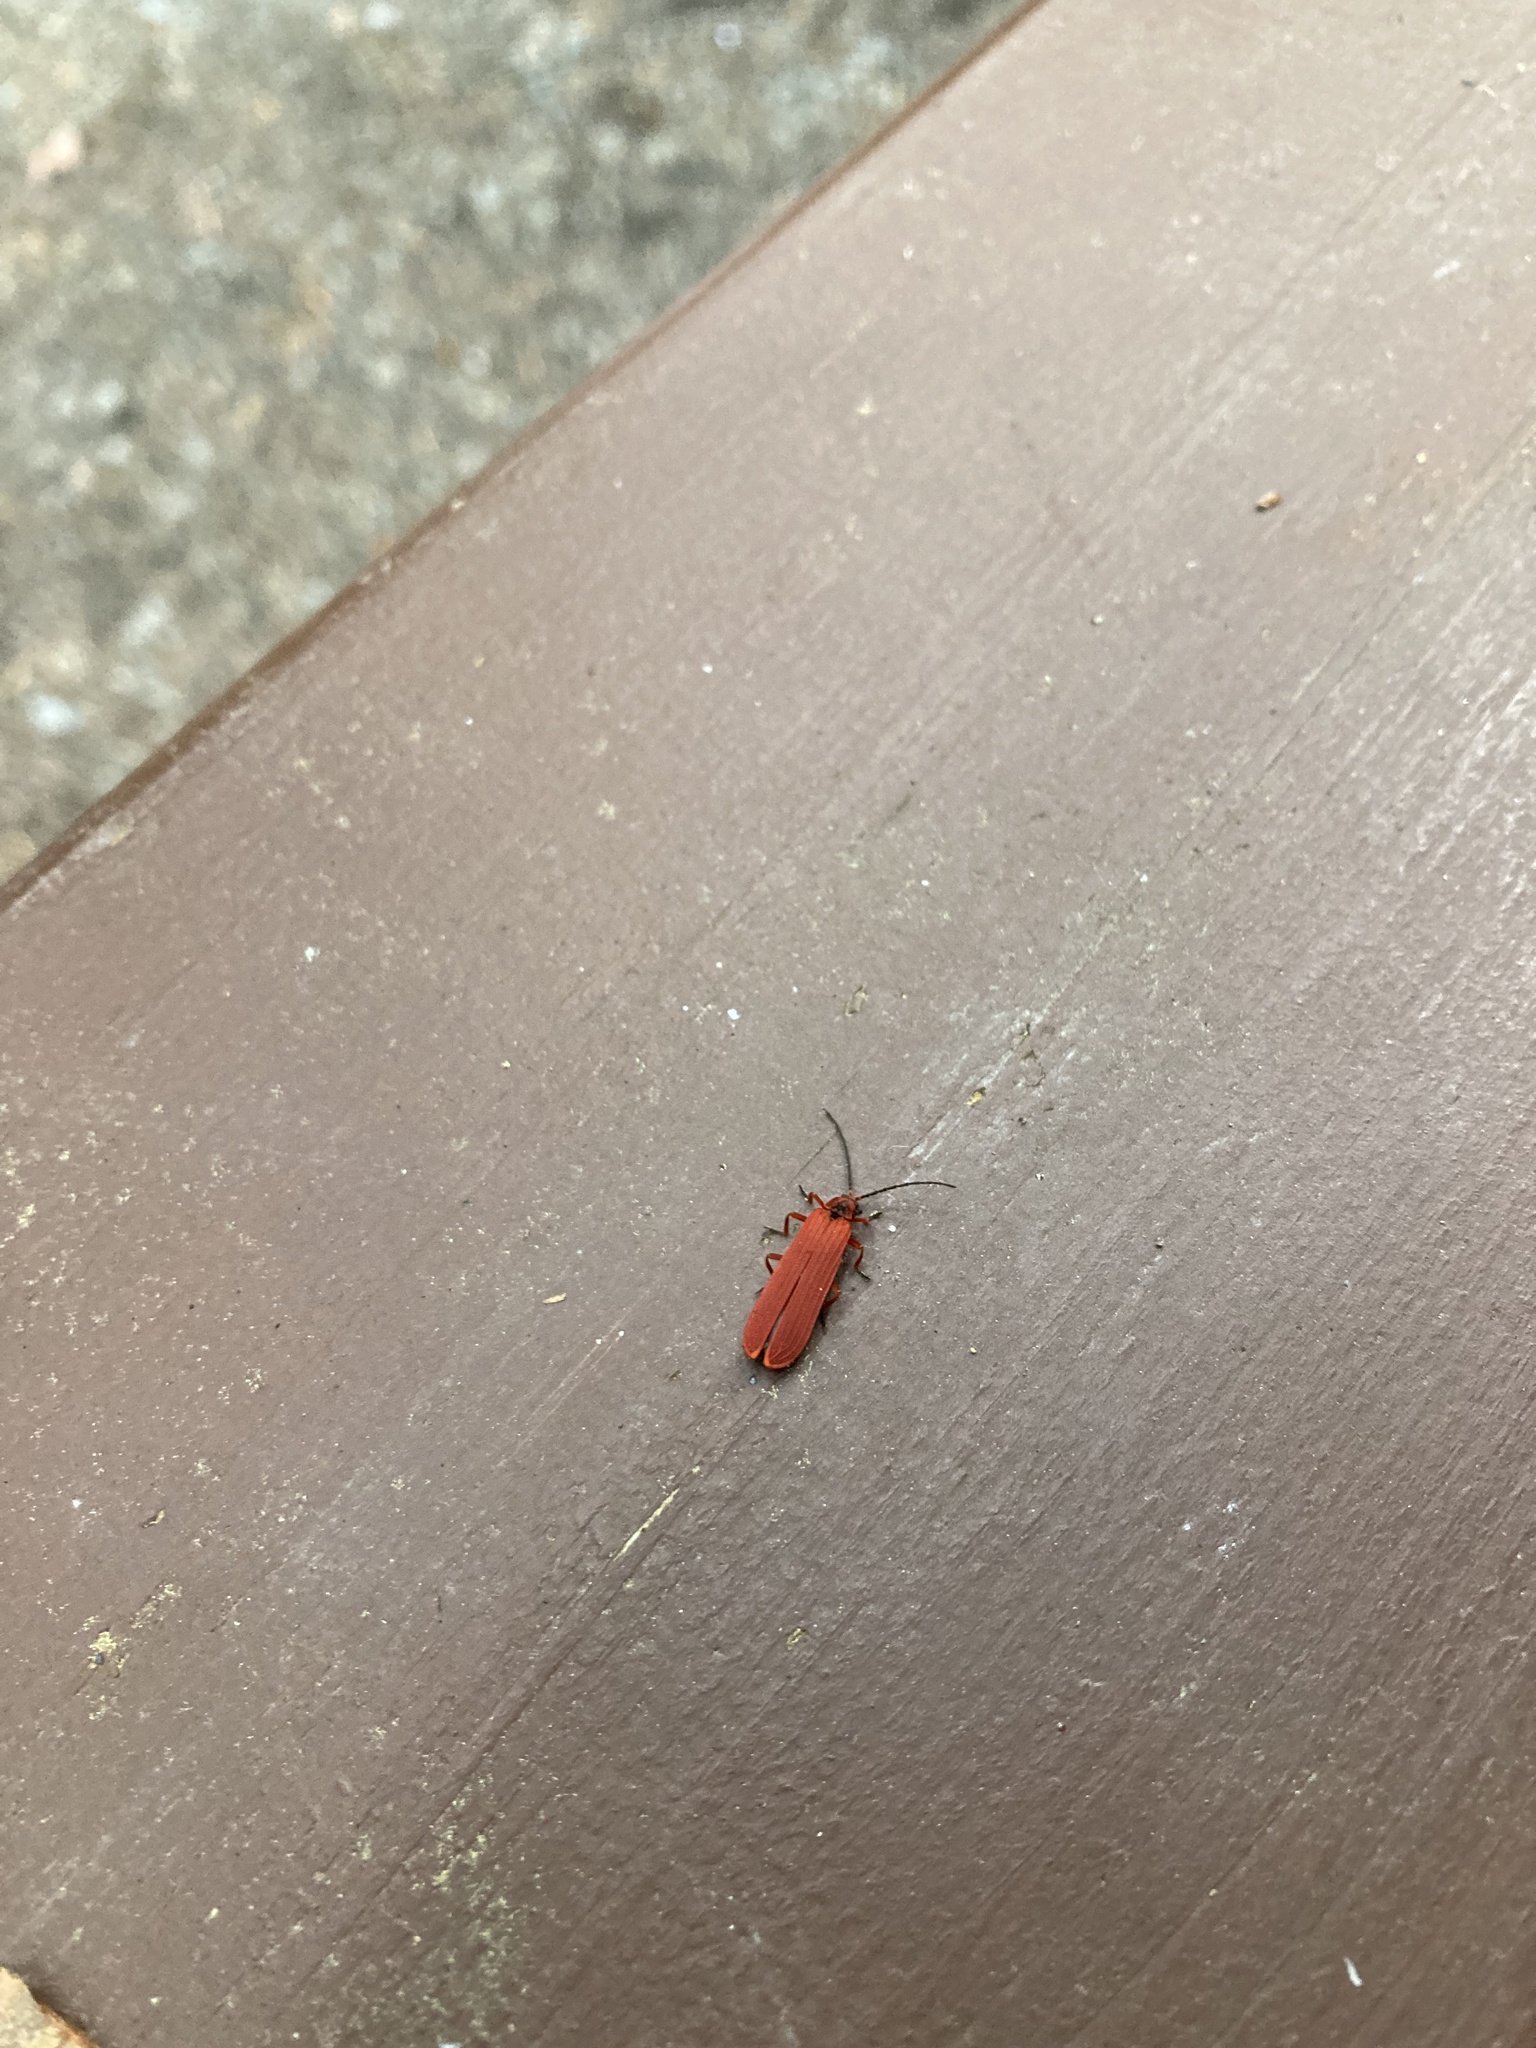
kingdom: Animalia
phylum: Arthropoda
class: Insecta
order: Coleoptera
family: Lycidae
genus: Dictyoptera
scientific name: Dictyoptera simplicipes
